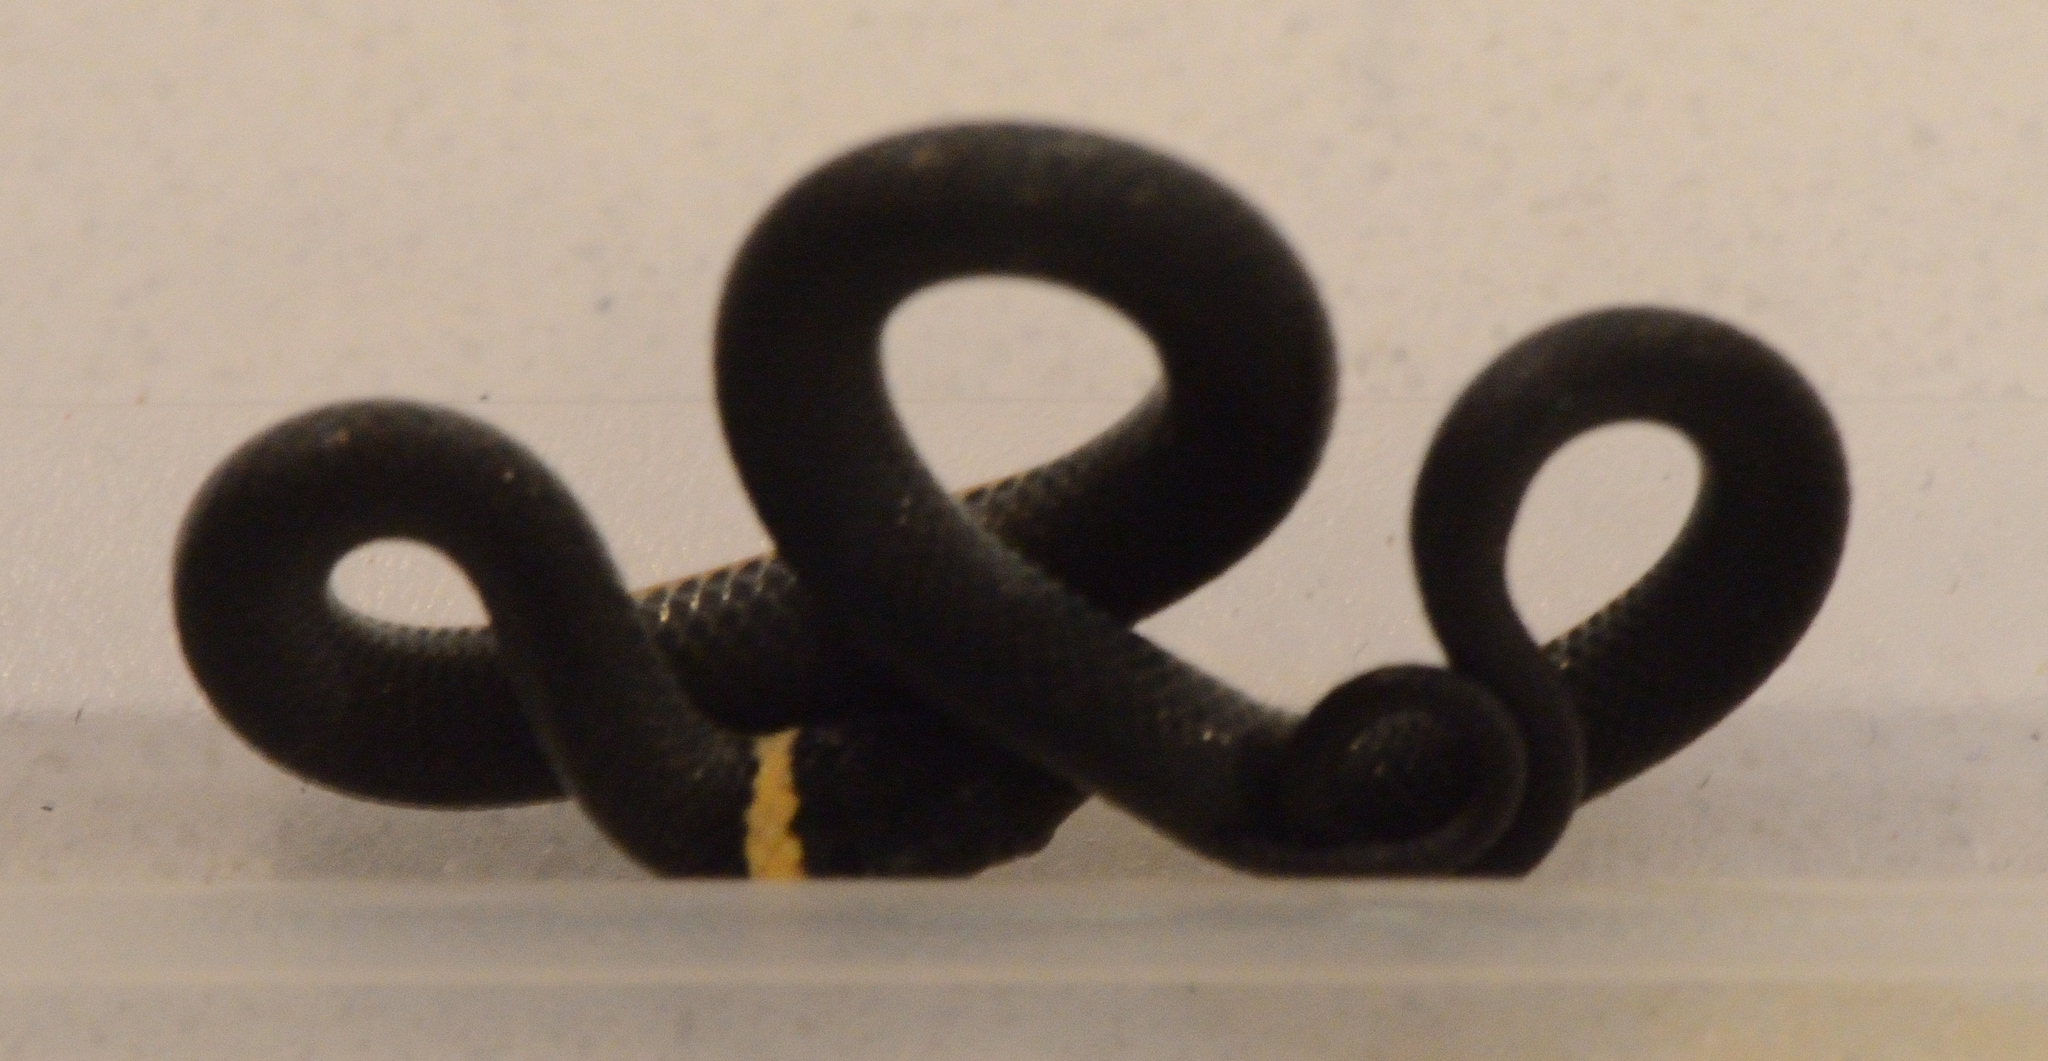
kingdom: Animalia
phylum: Chordata
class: Squamata
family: Colubridae
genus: Diadophis
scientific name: Diadophis punctatus
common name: Ringneck snake
